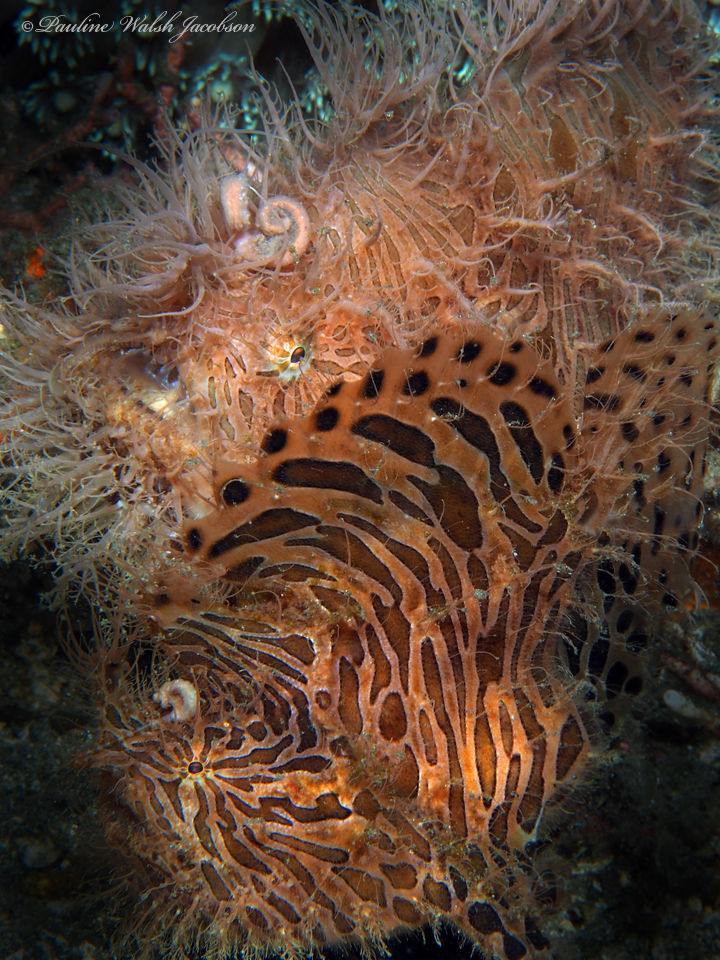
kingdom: Animalia
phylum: Chordata
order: Lophiiformes
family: Antennariidae
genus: Antennarius
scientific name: Antennarius striatus
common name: Striated frogfish
